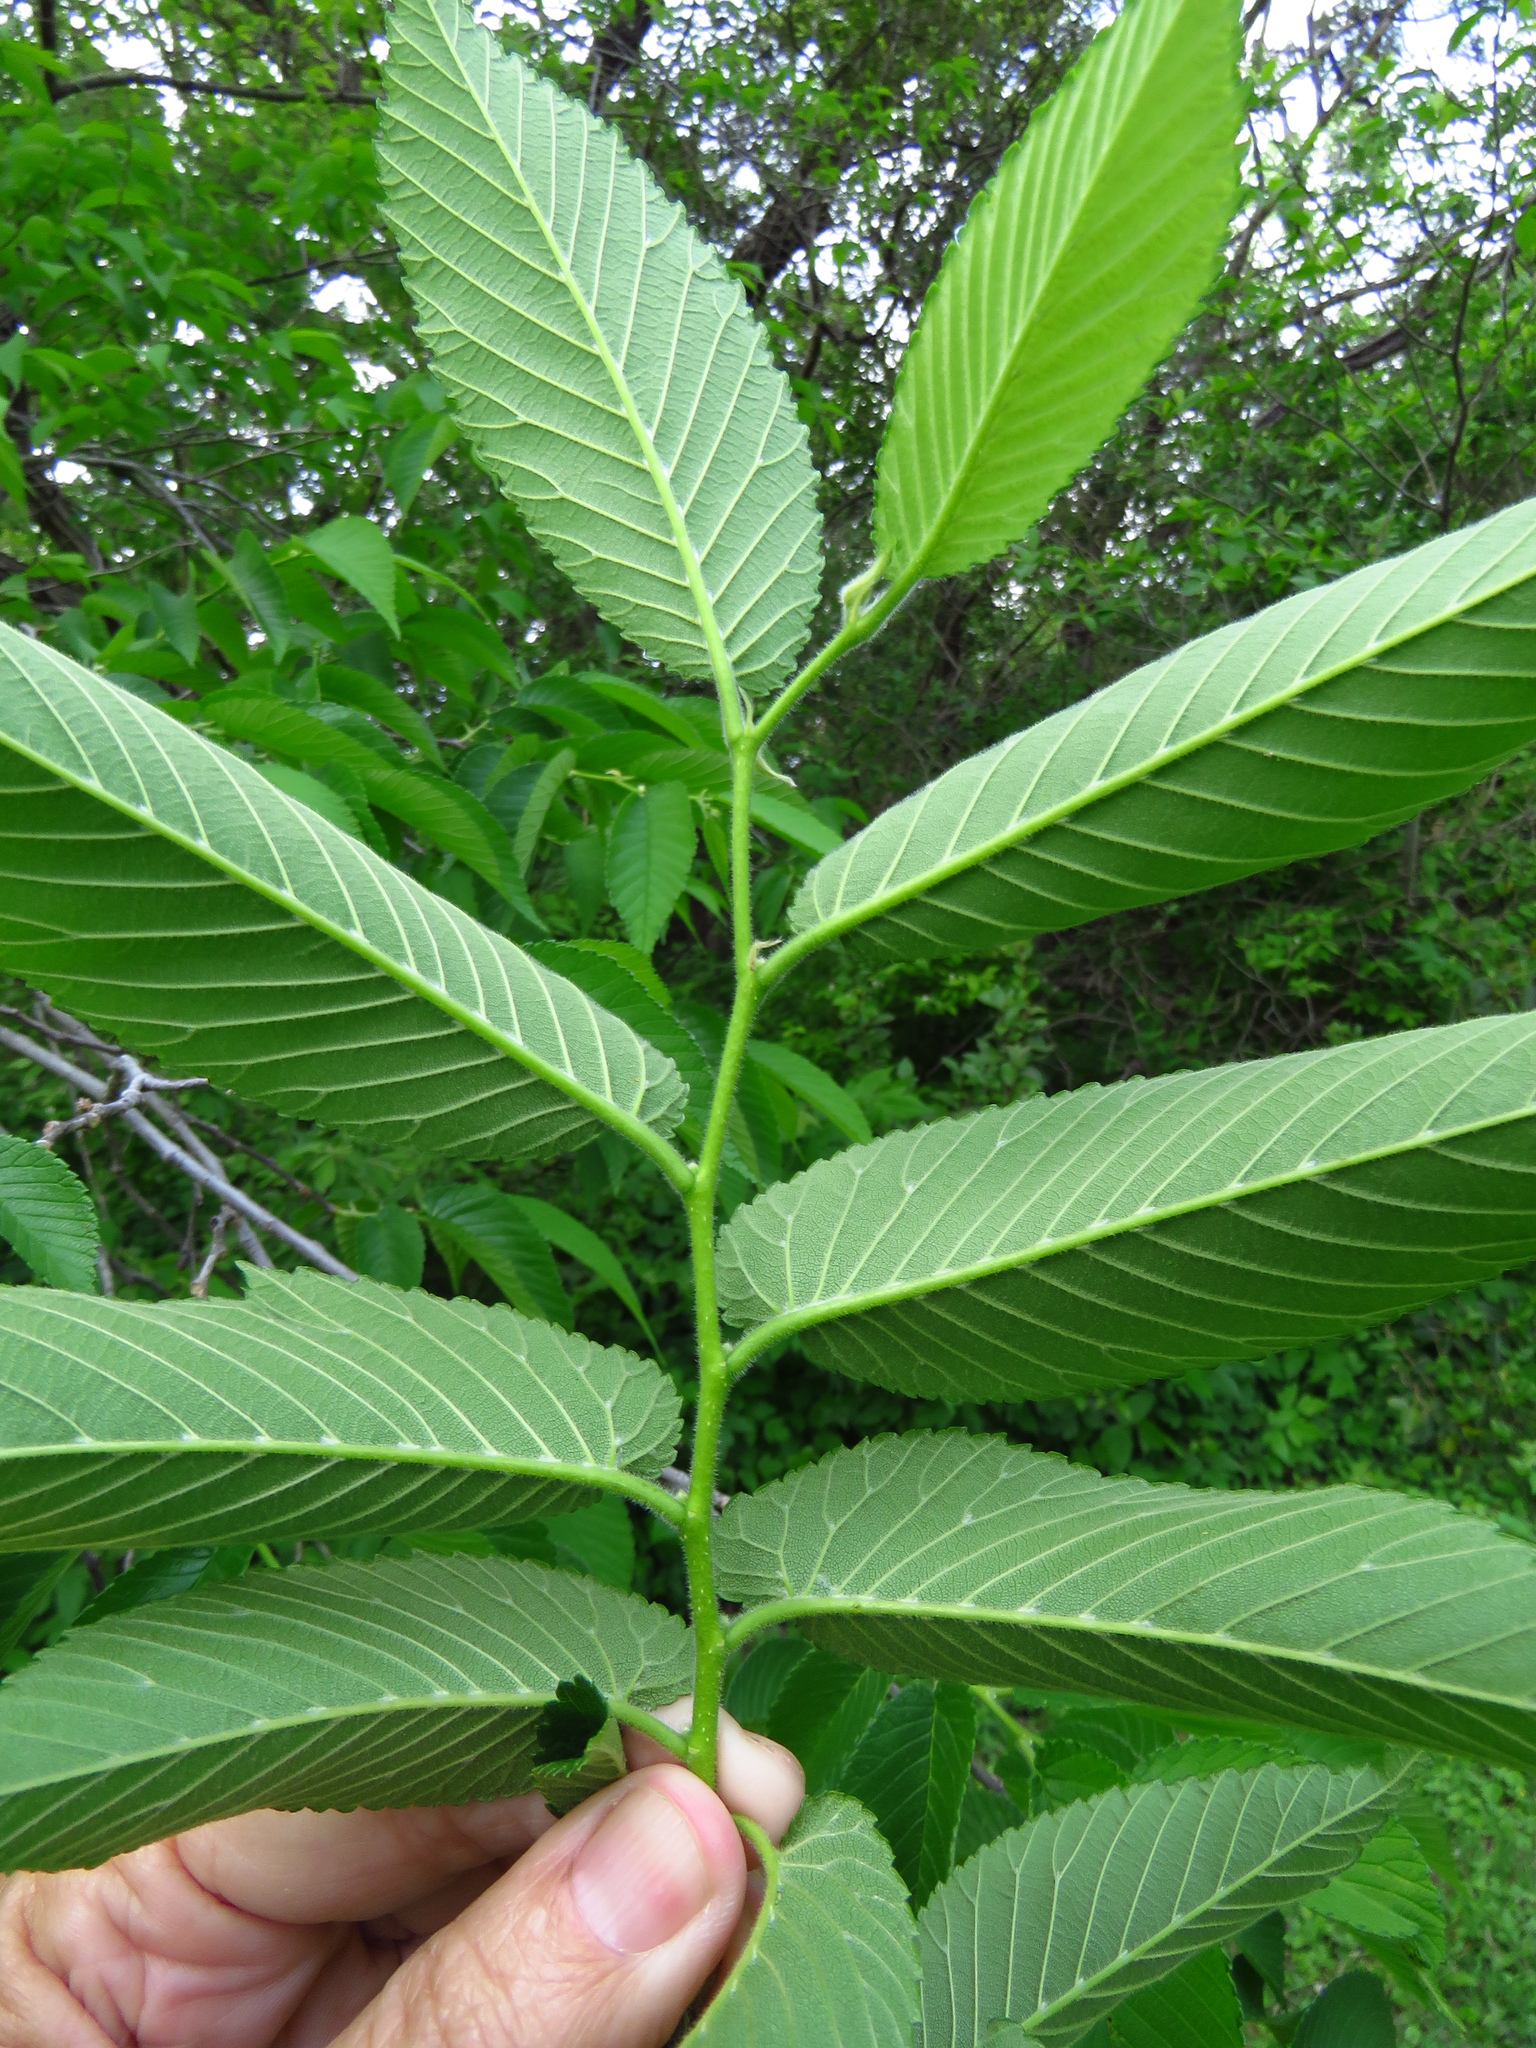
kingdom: Plantae
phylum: Tracheophyta
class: Magnoliopsida
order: Rosales
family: Ulmaceae
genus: Ulmus
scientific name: Ulmus rubra
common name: Slippery elm
